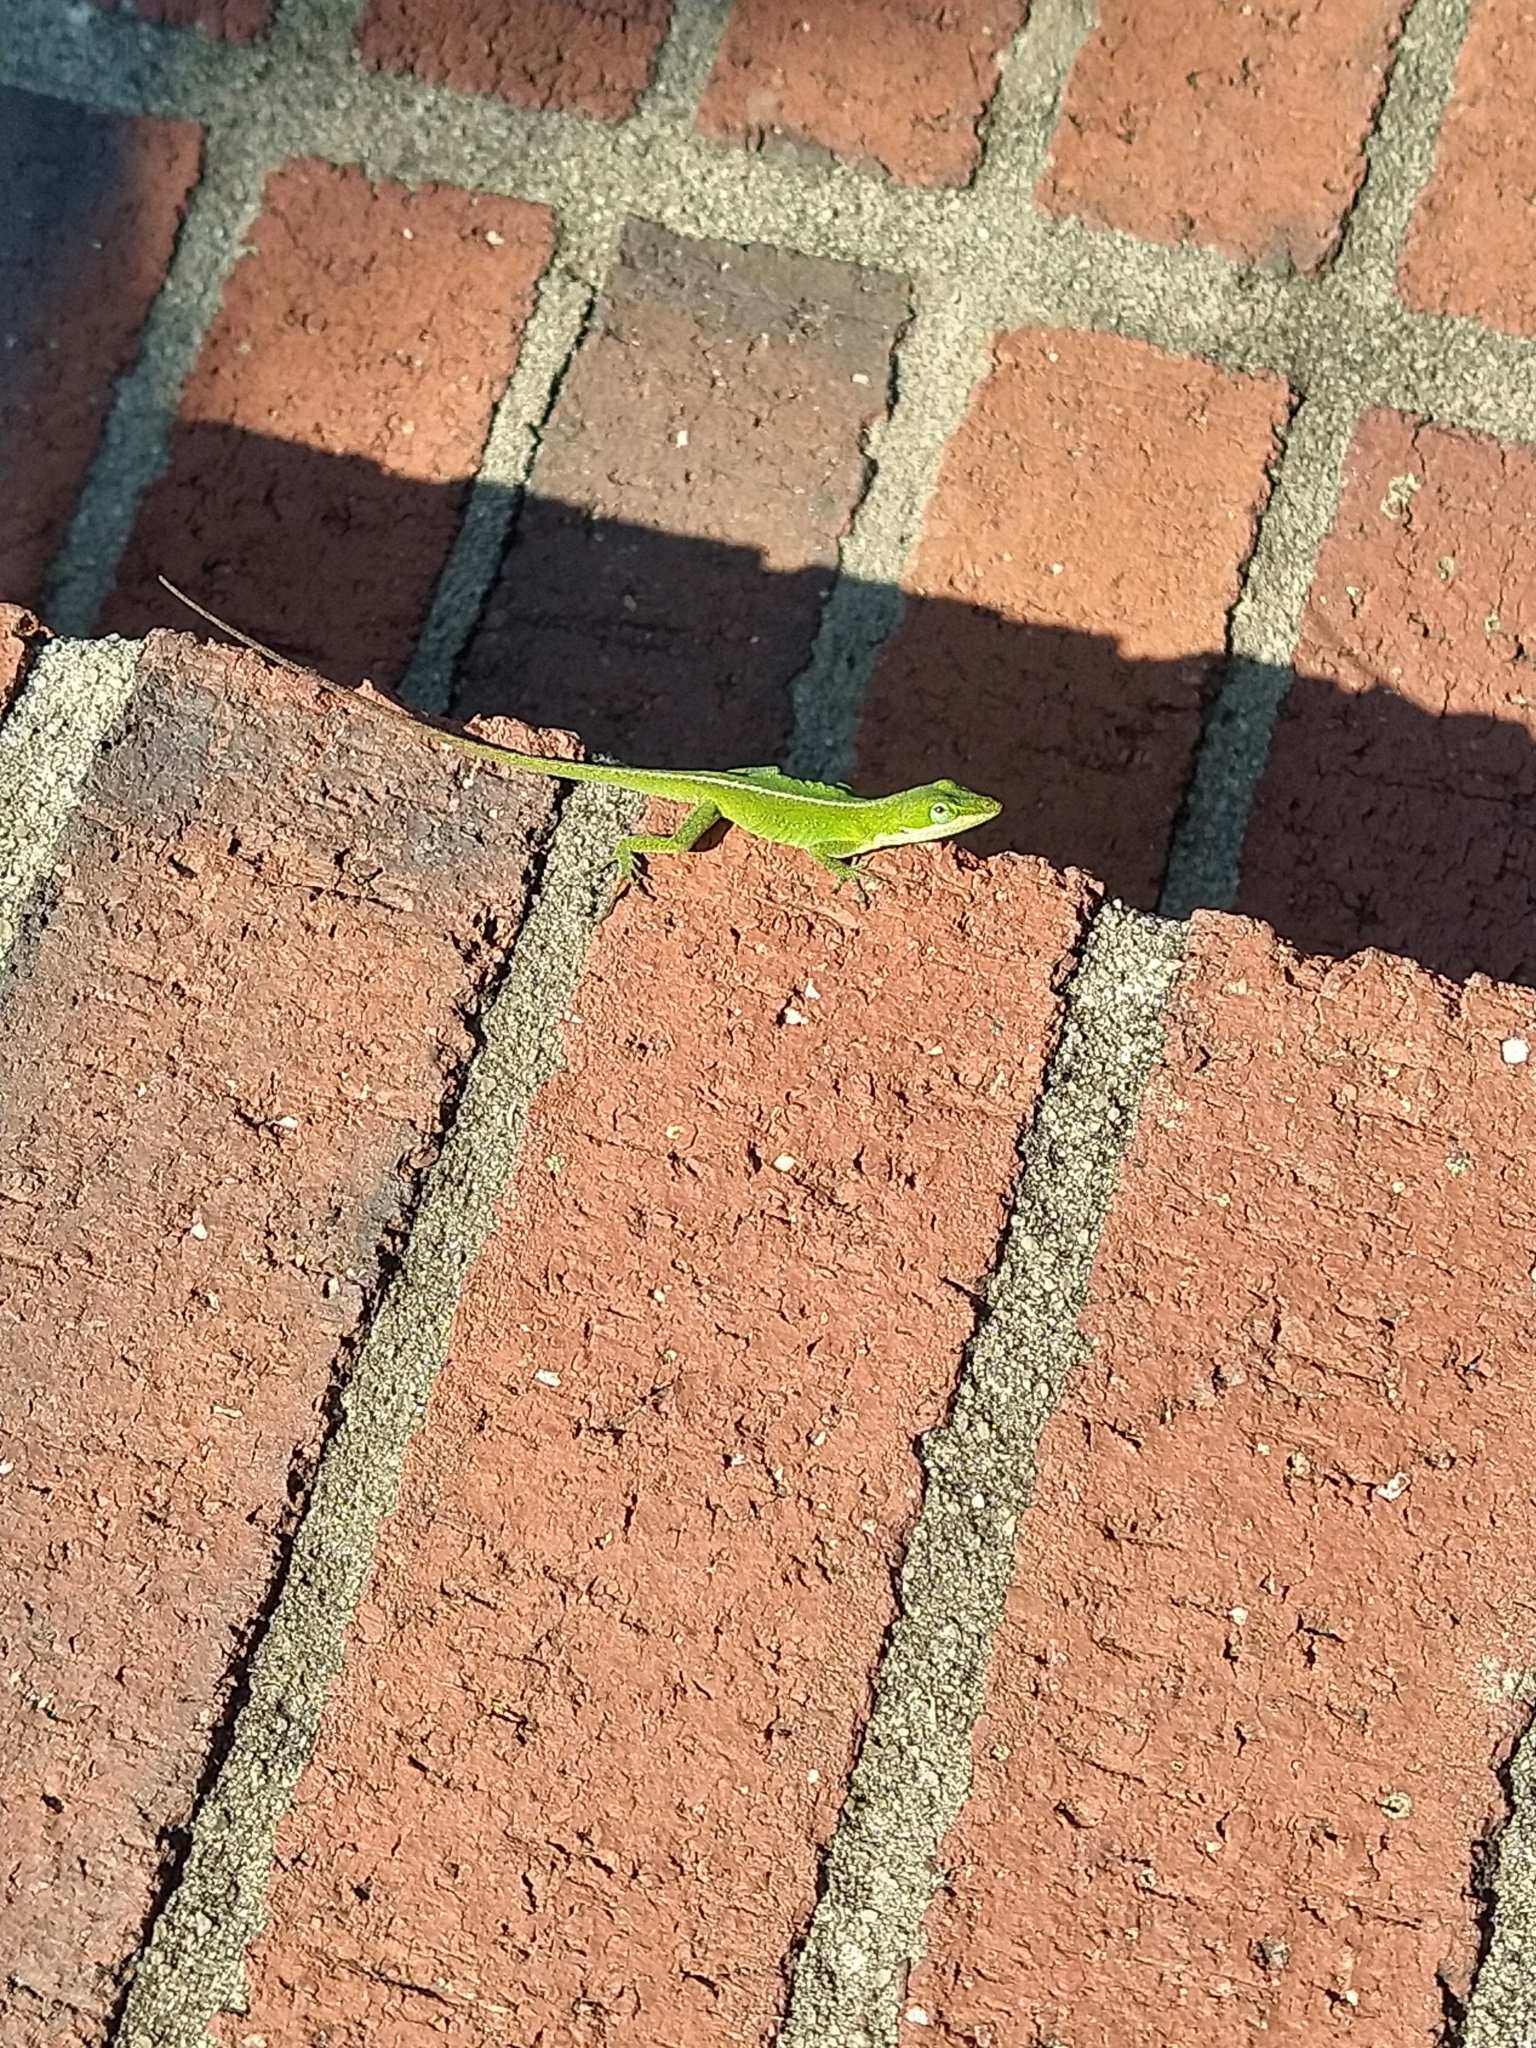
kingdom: Animalia
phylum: Chordata
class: Squamata
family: Dactyloidae
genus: Anolis
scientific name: Anolis carolinensis
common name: Green anole
